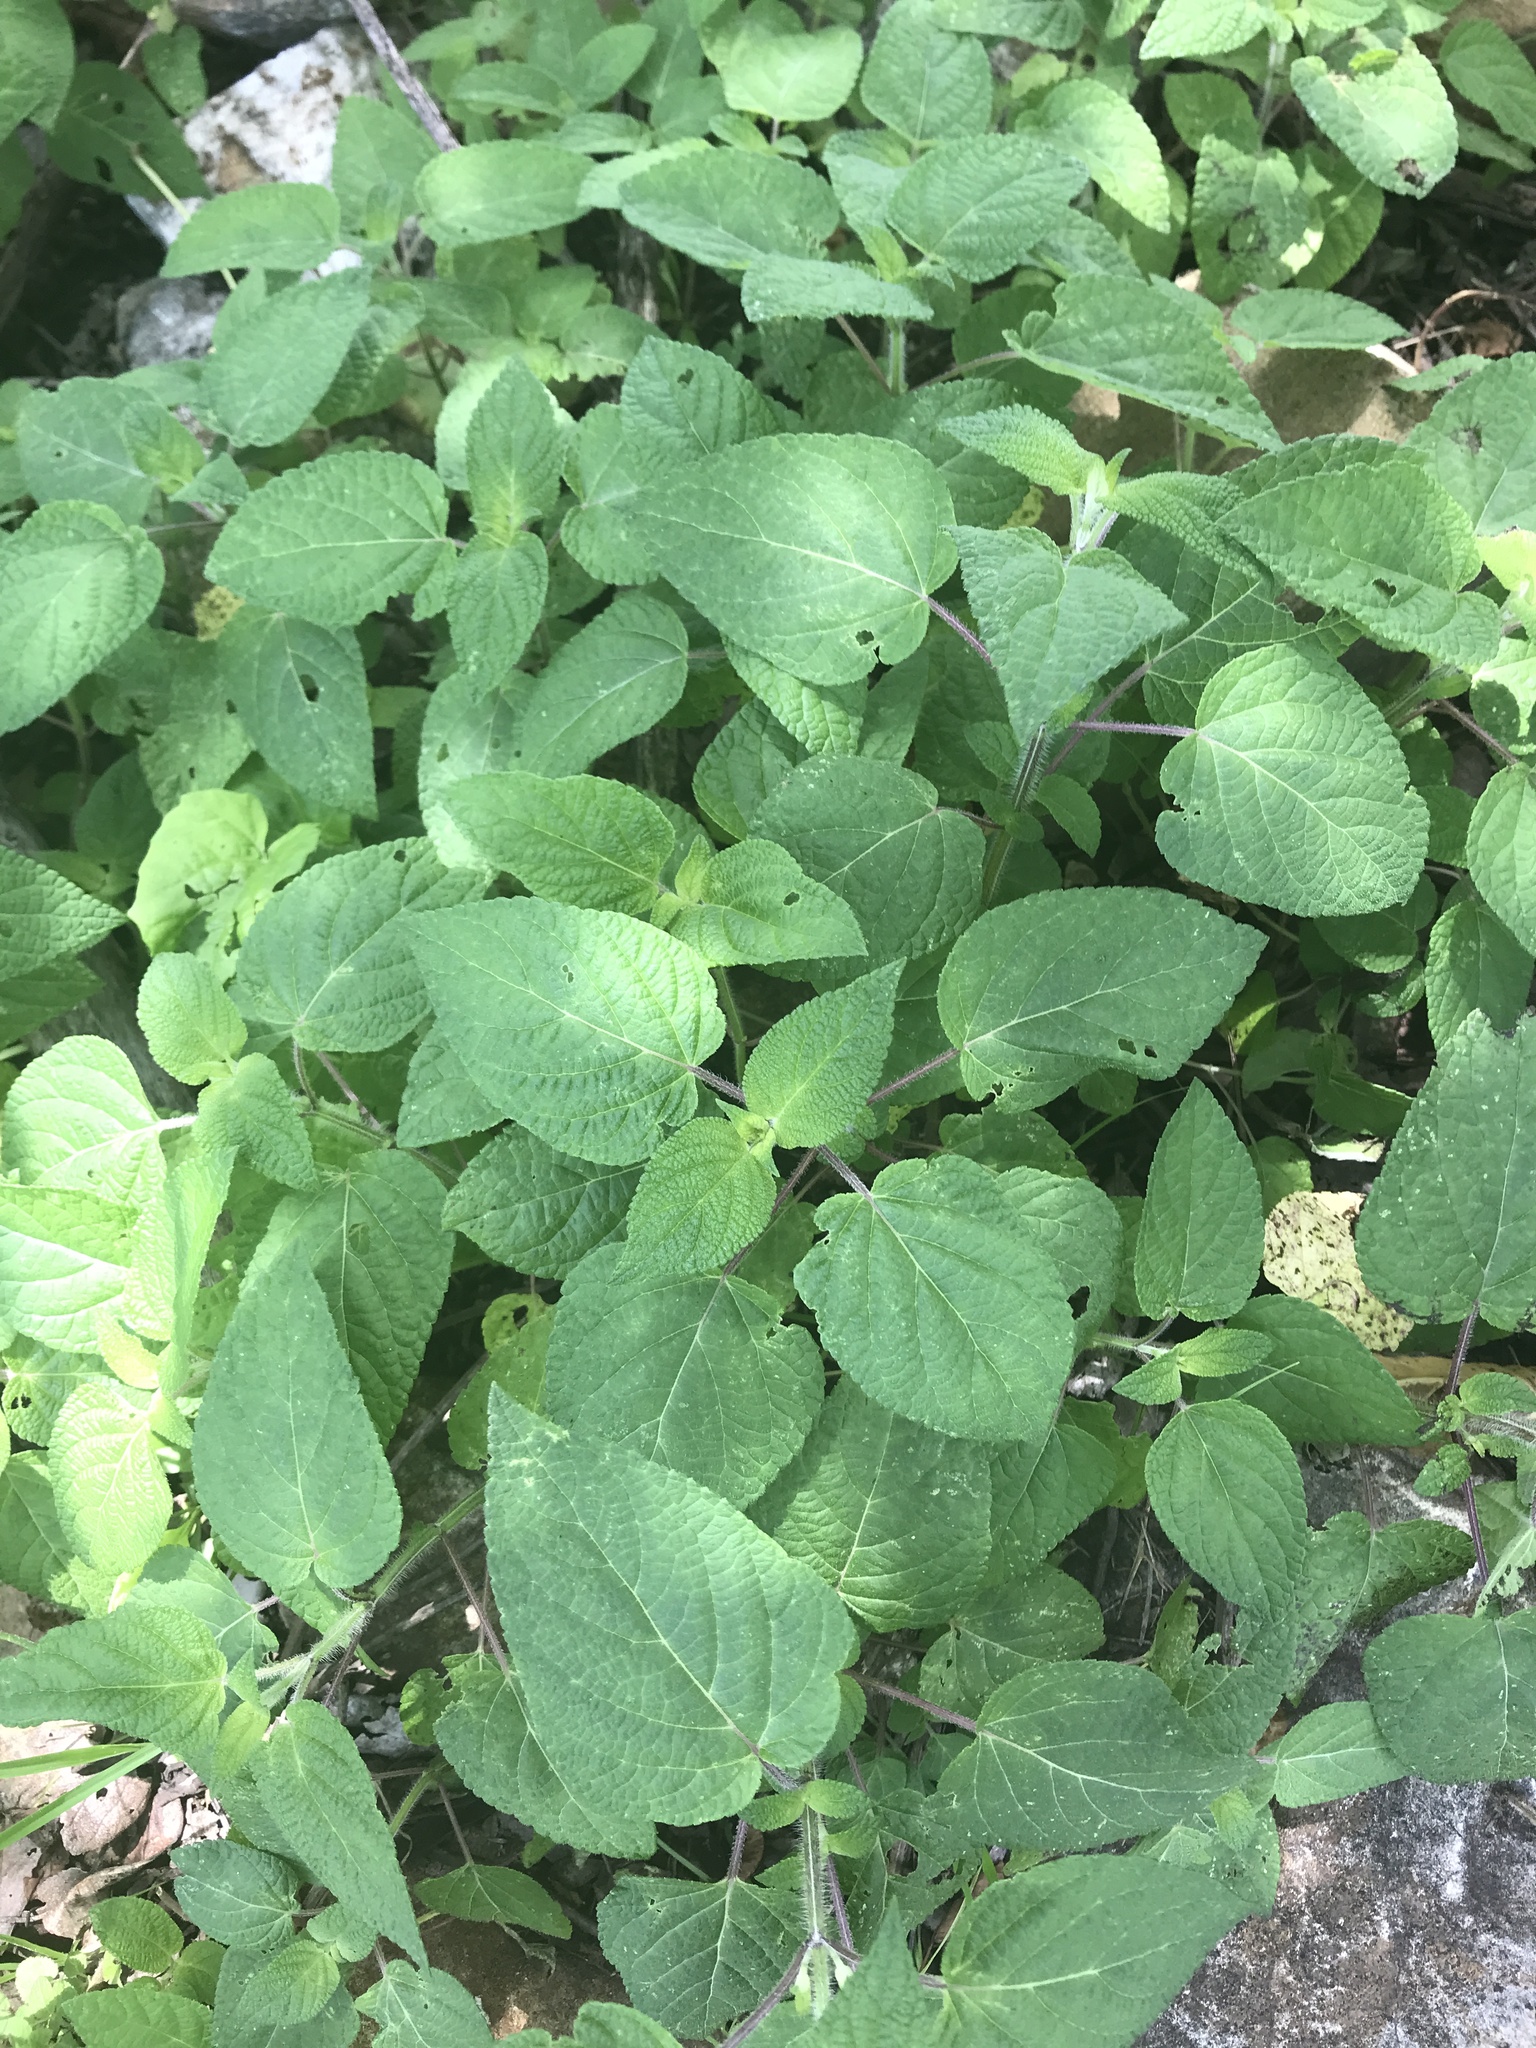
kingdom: Plantae
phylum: Tracheophyta
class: Magnoliopsida
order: Lamiales
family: Lamiaceae
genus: Salvia
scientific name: Salvia circinnata
